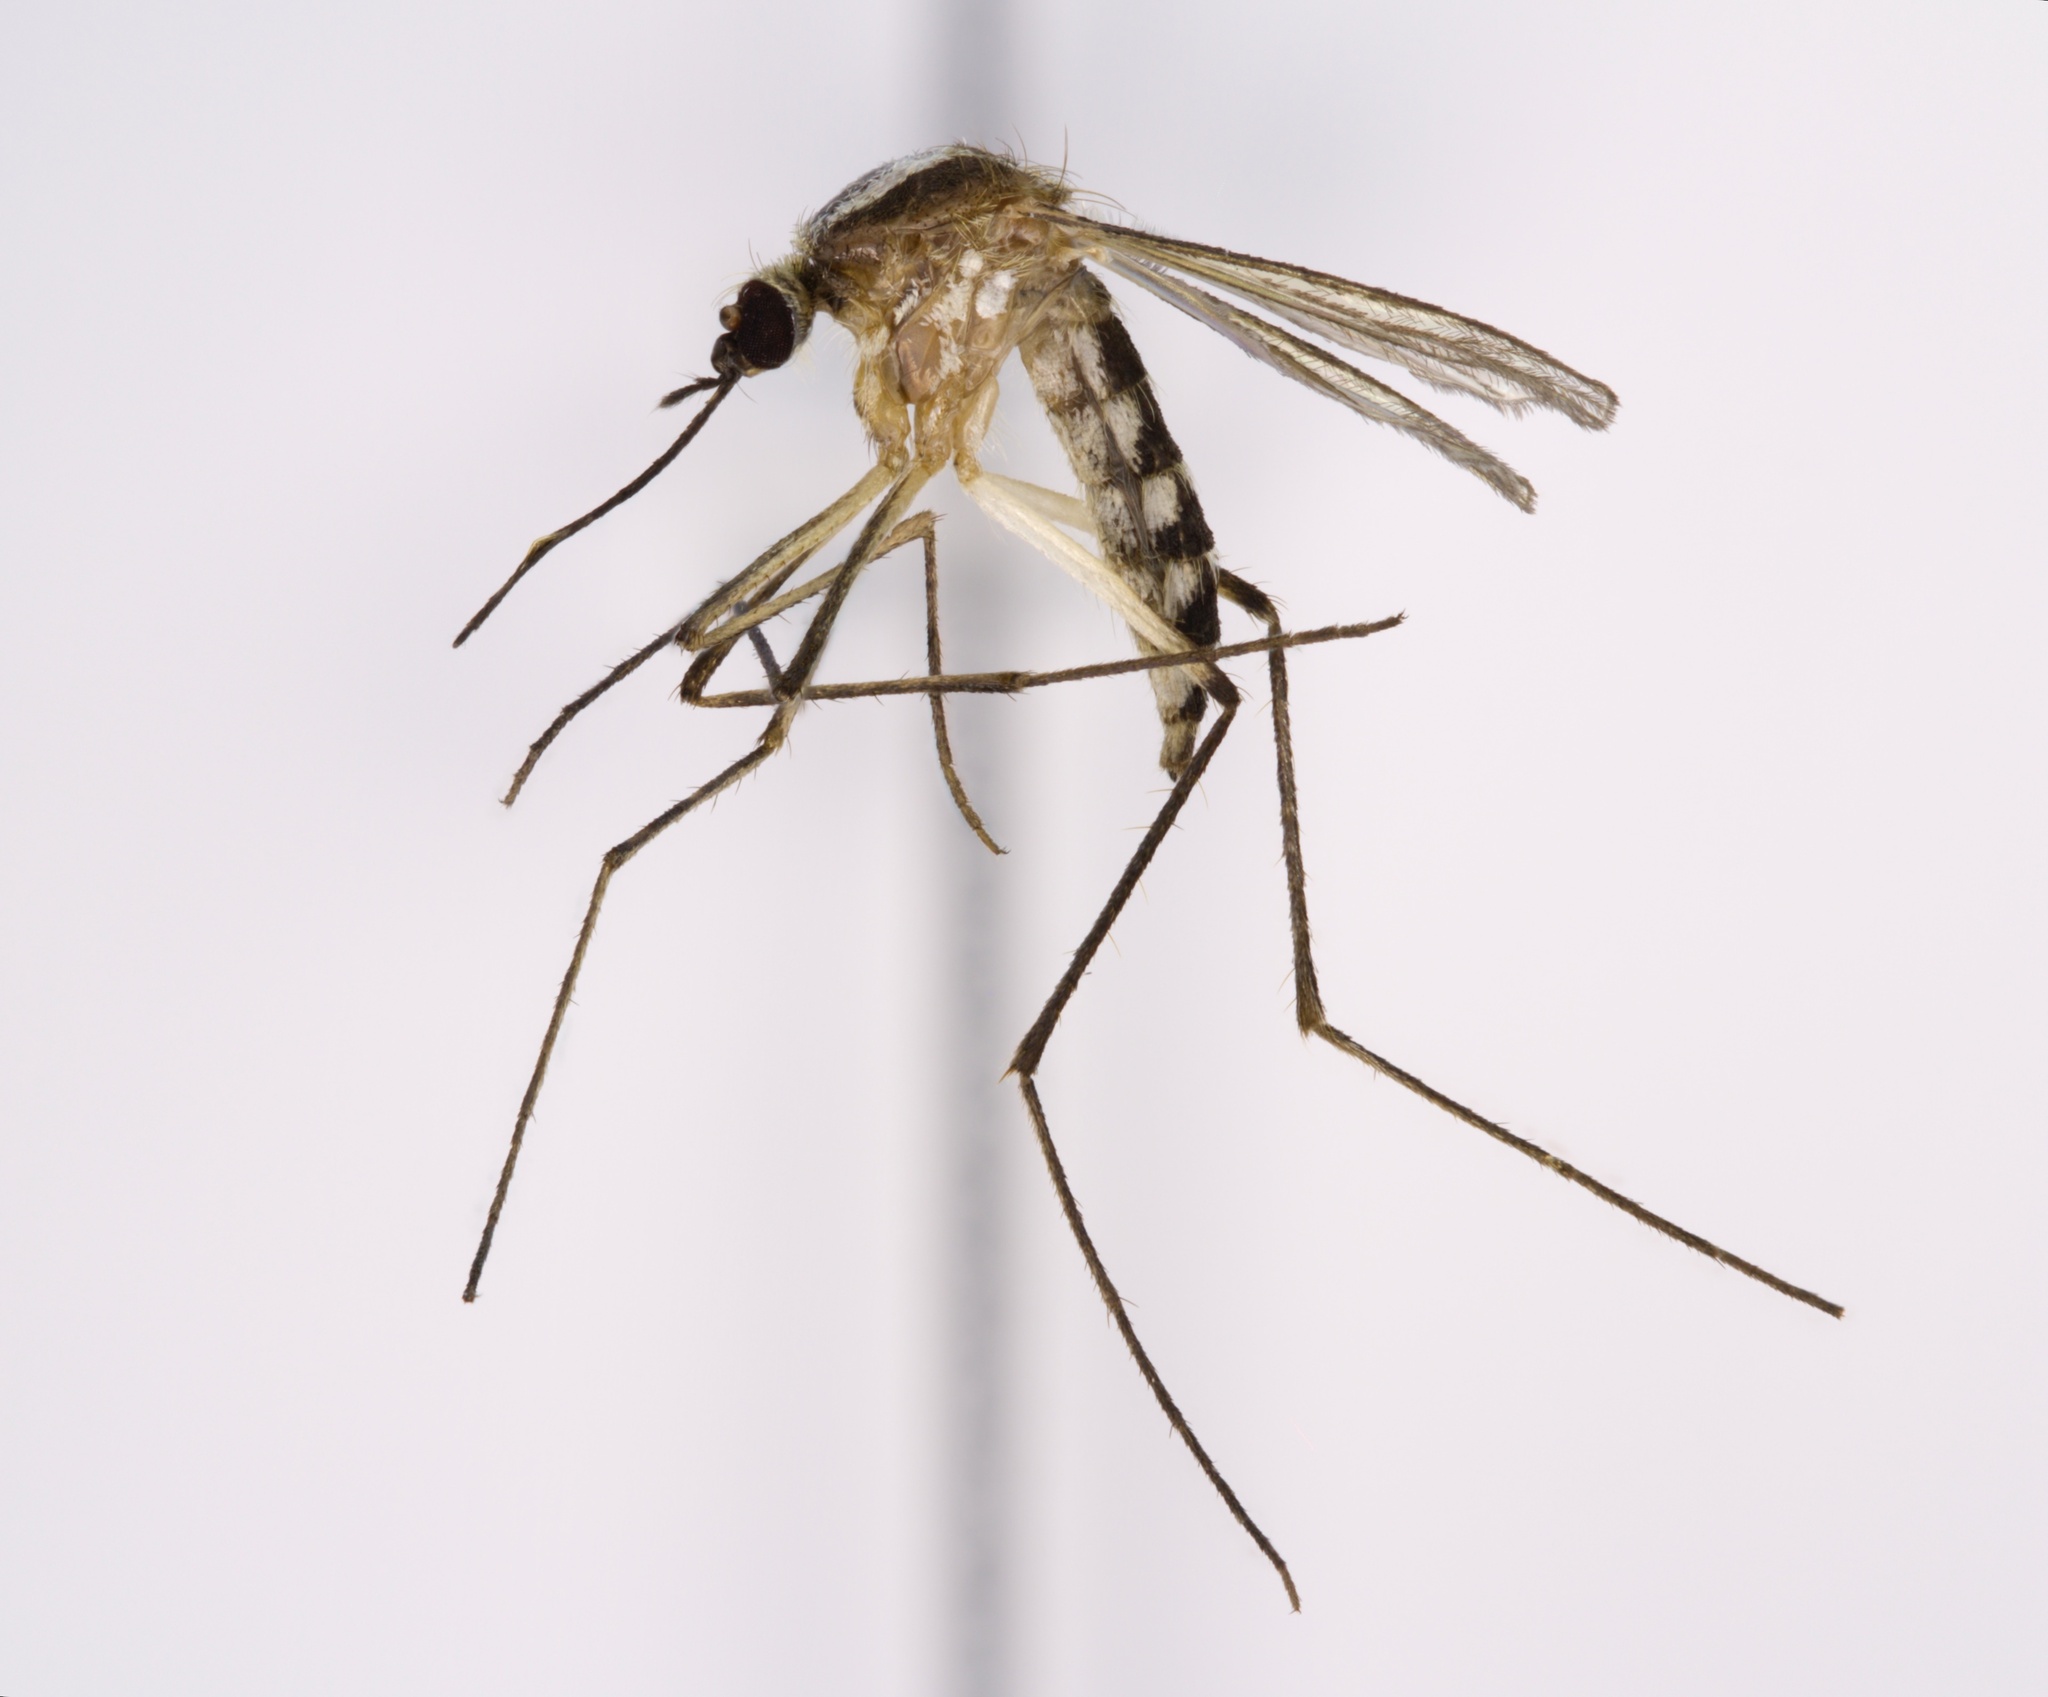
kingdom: Animalia
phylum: Arthropoda
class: Insecta
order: Diptera
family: Culicidae
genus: Aedes
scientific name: Aedes infirmatus
